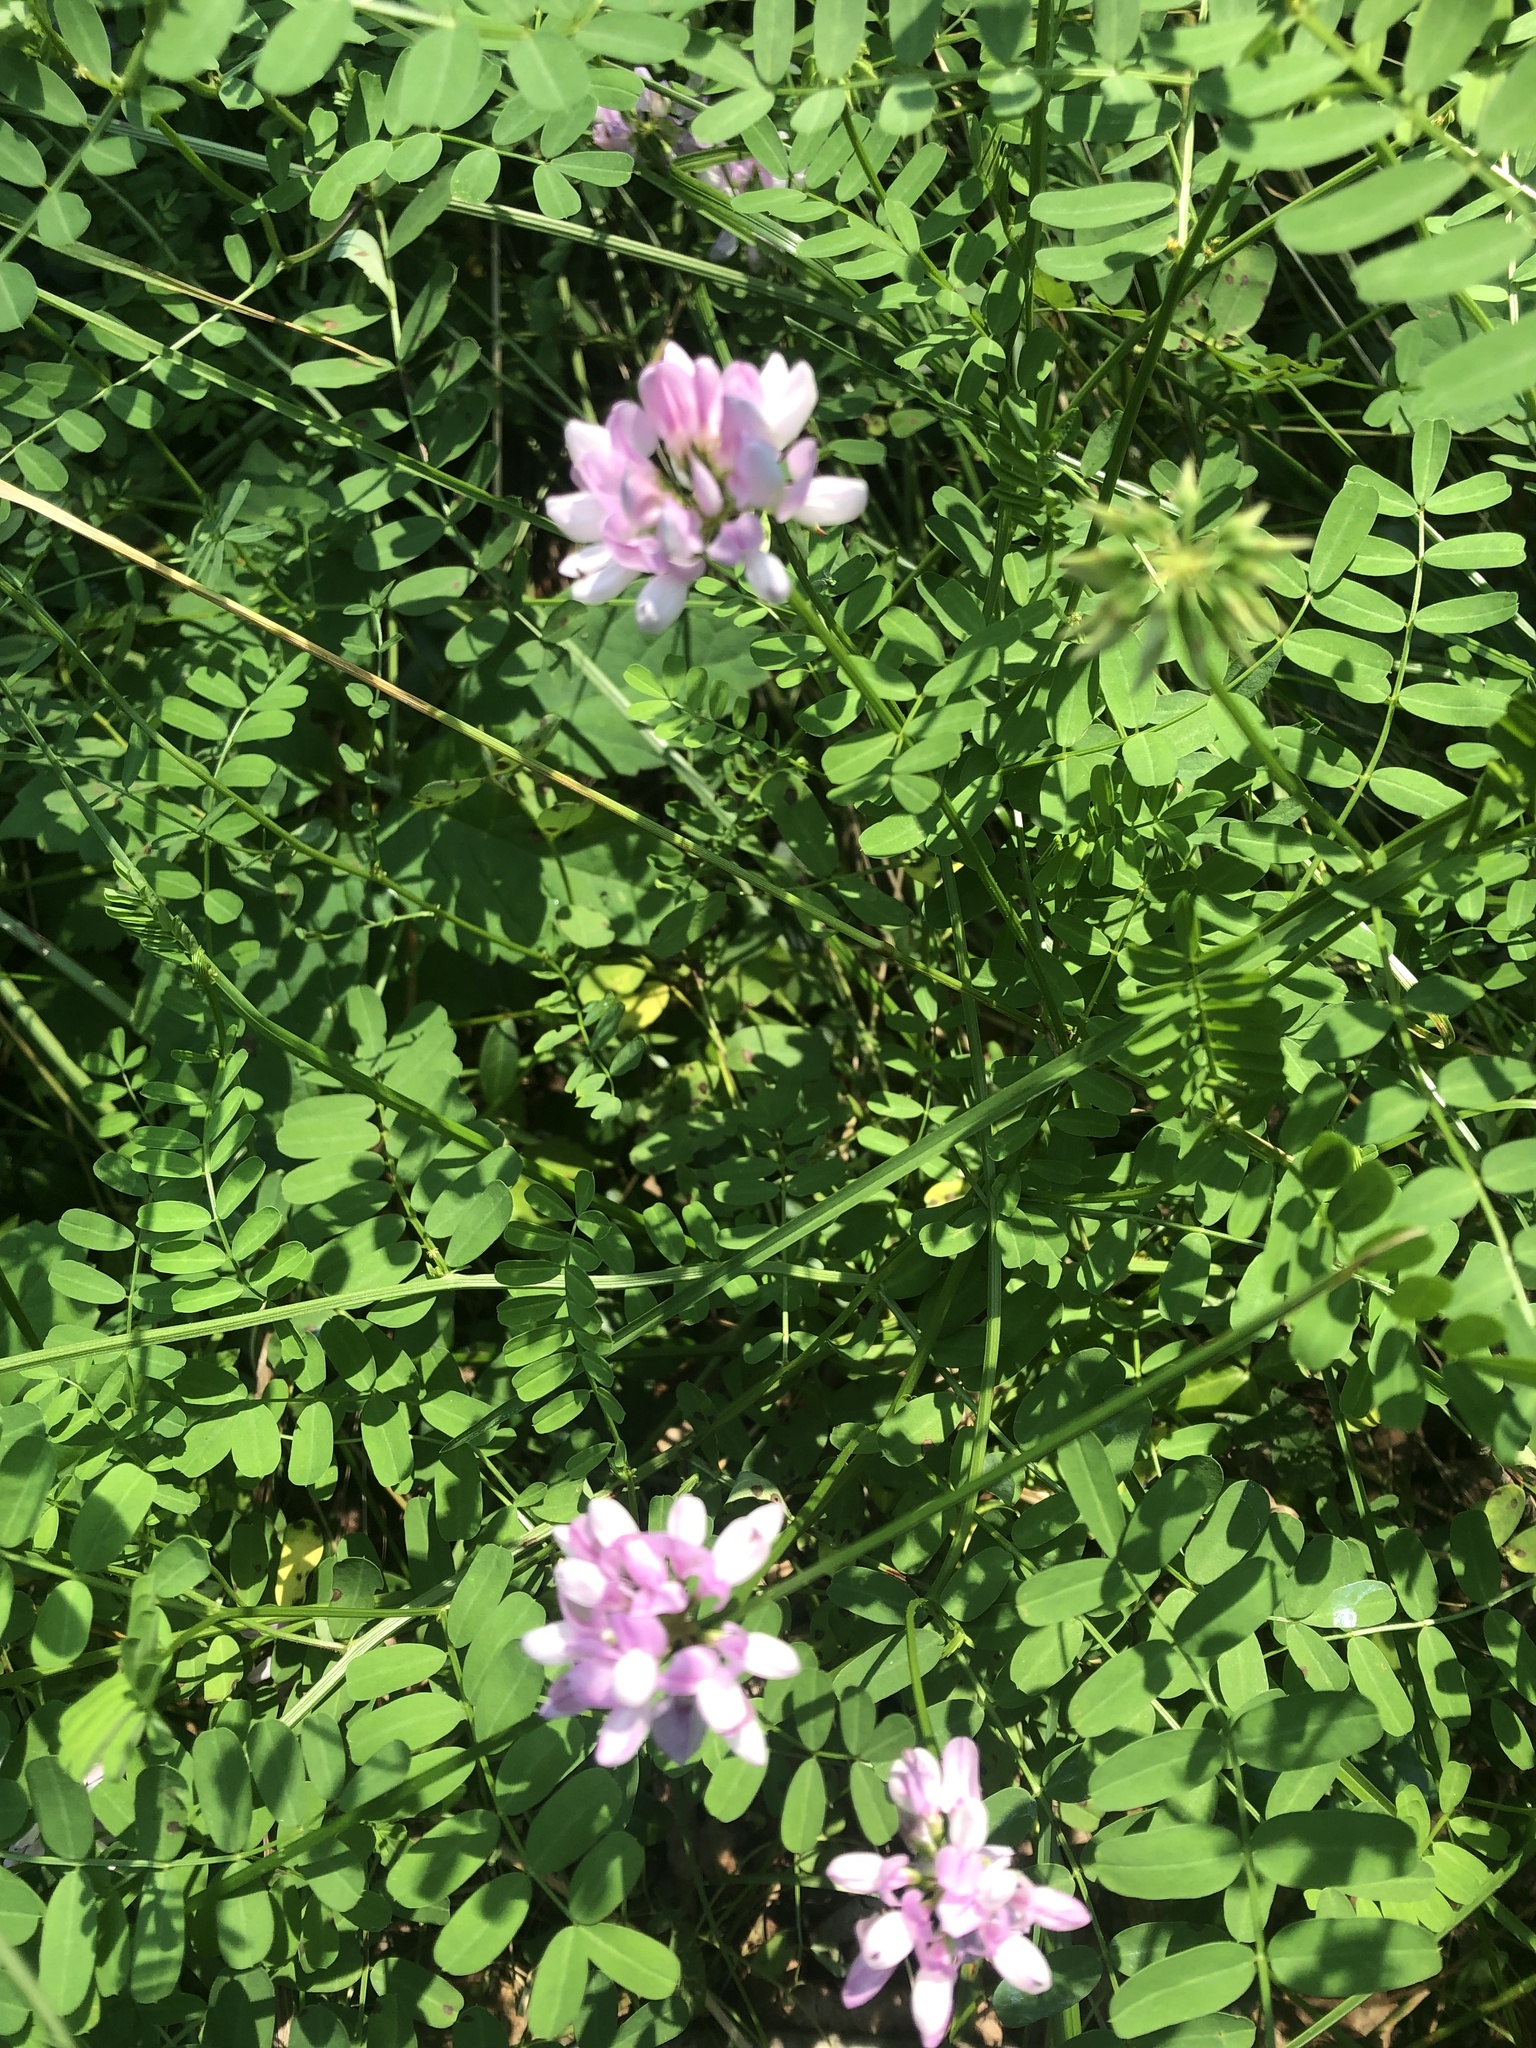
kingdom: Plantae
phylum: Tracheophyta
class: Magnoliopsida
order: Fabales
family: Fabaceae
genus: Coronilla
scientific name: Coronilla varia
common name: Crownvetch
